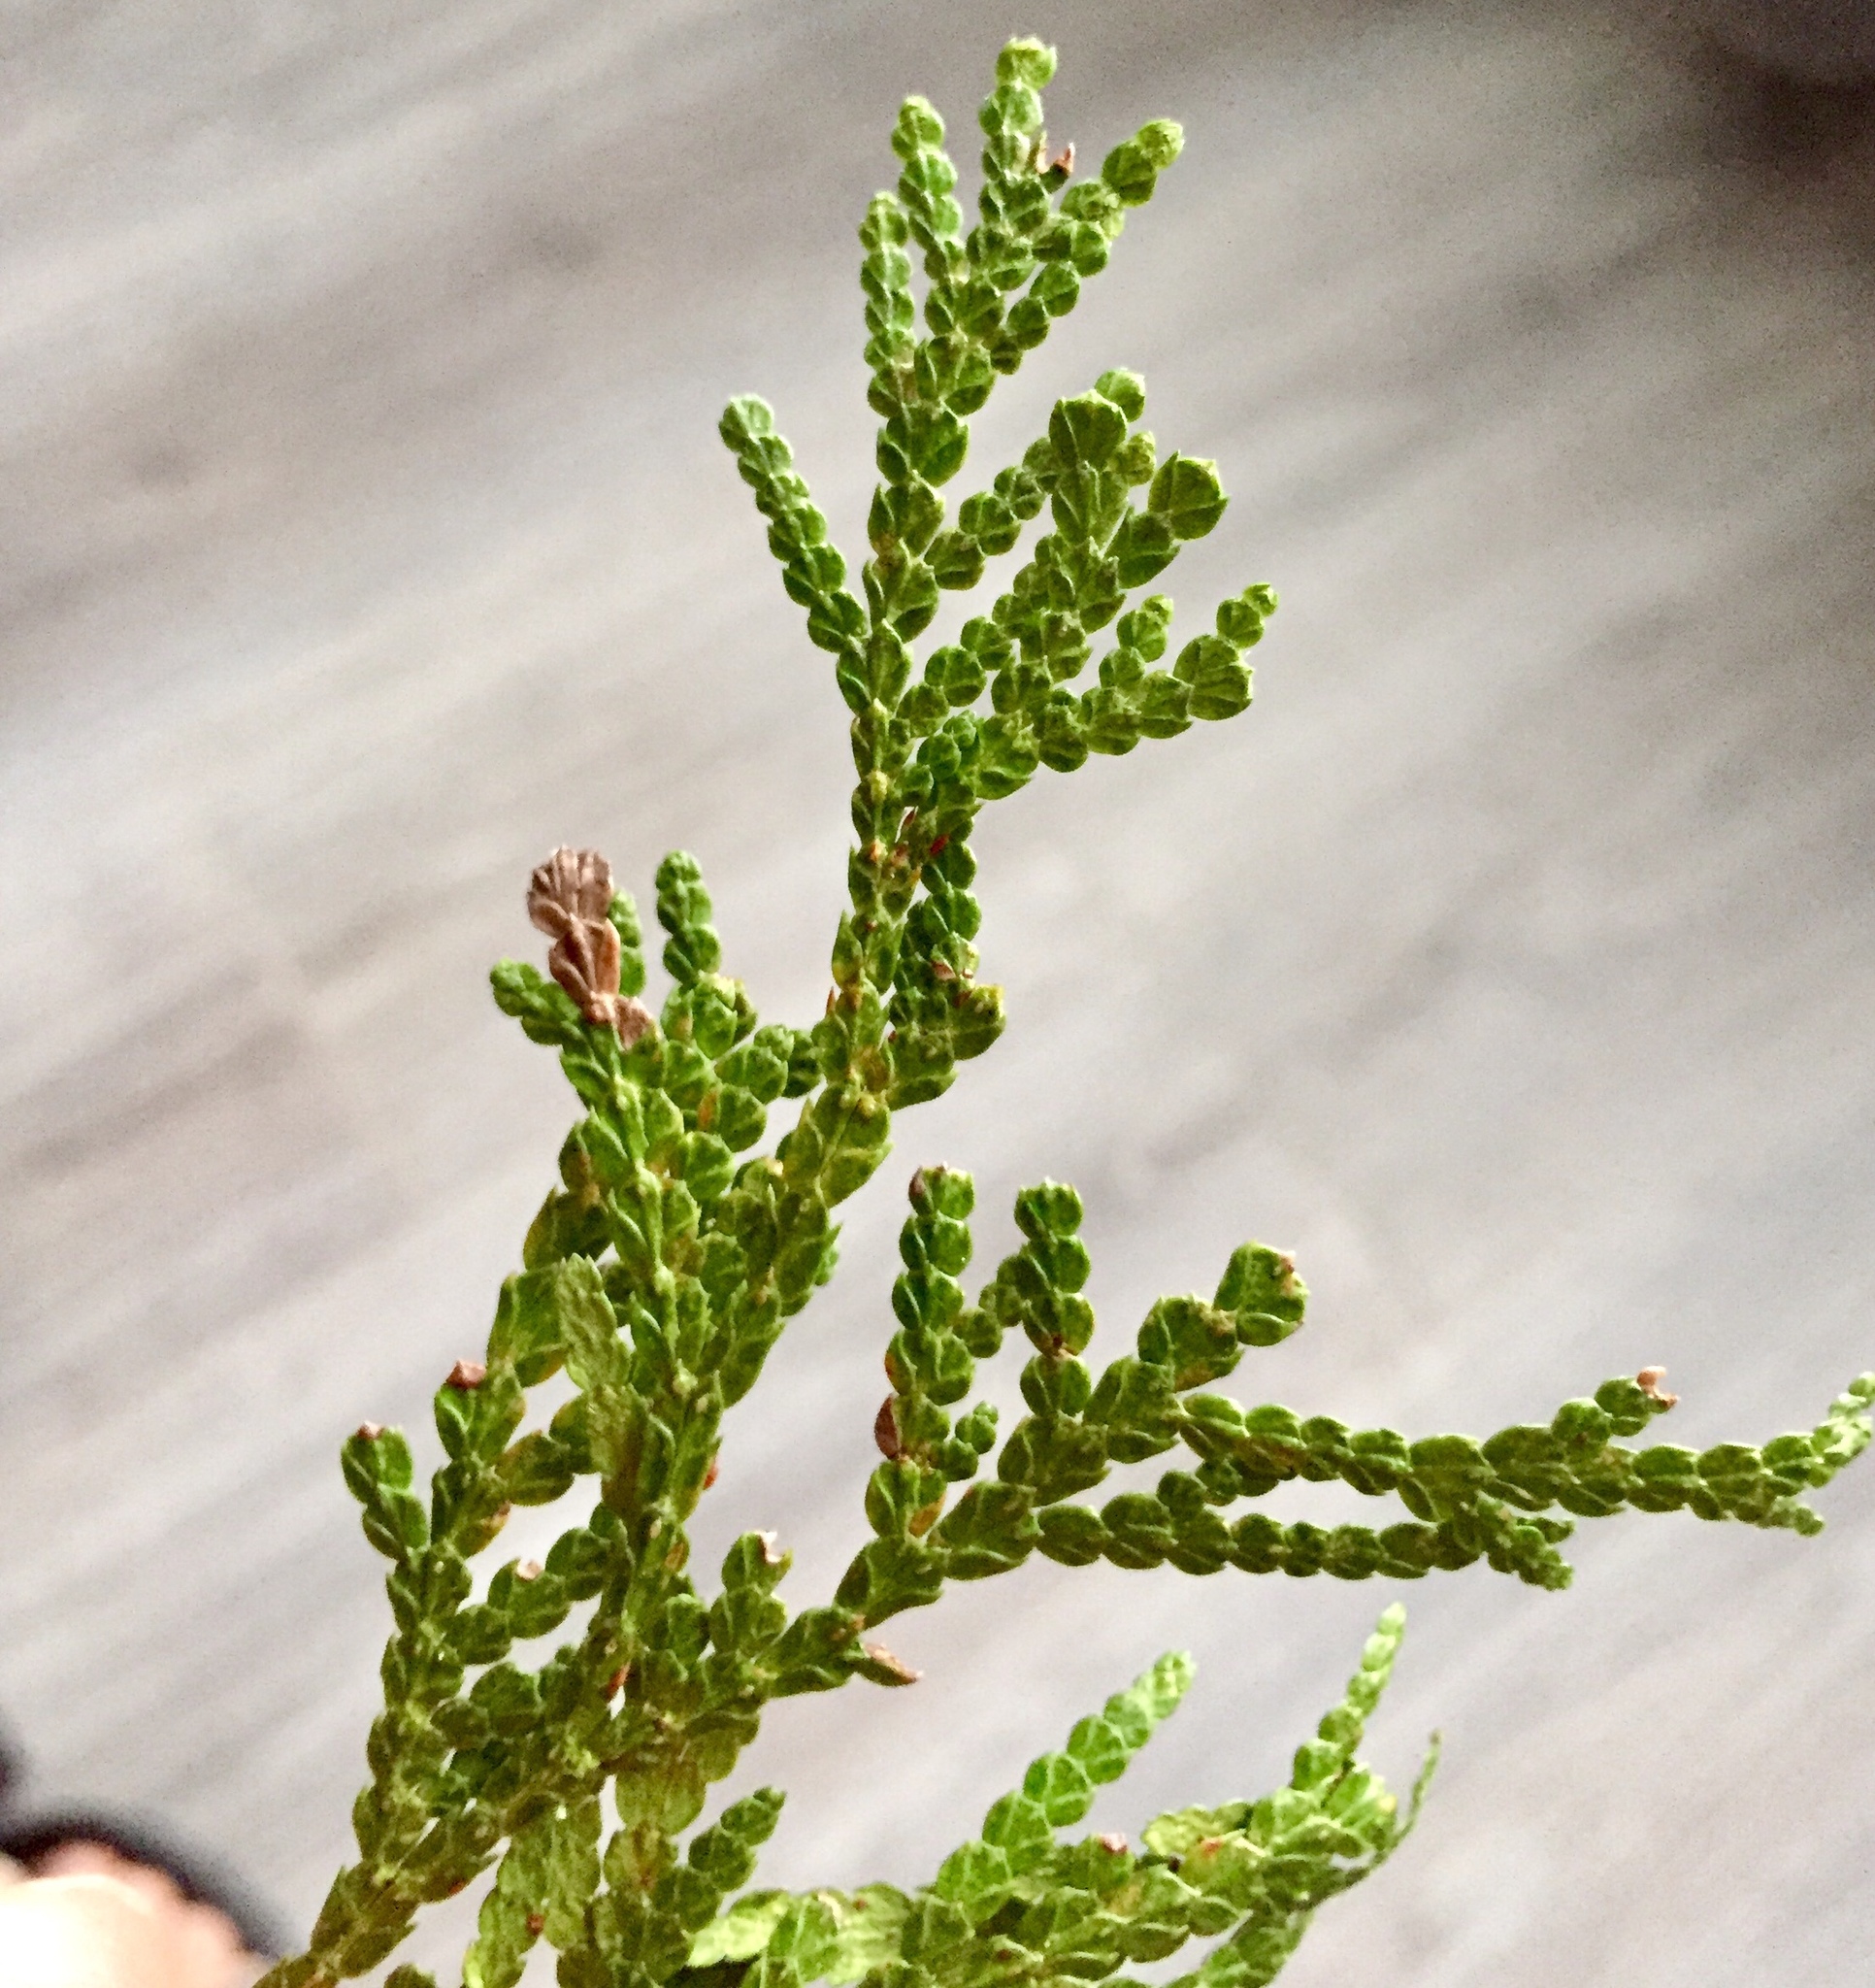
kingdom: Plantae
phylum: Tracheophyta
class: Pinopsida
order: Pinales
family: Cupressaceae
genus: Thuja
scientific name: Thuja occidentalis
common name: Northern white-cedar
